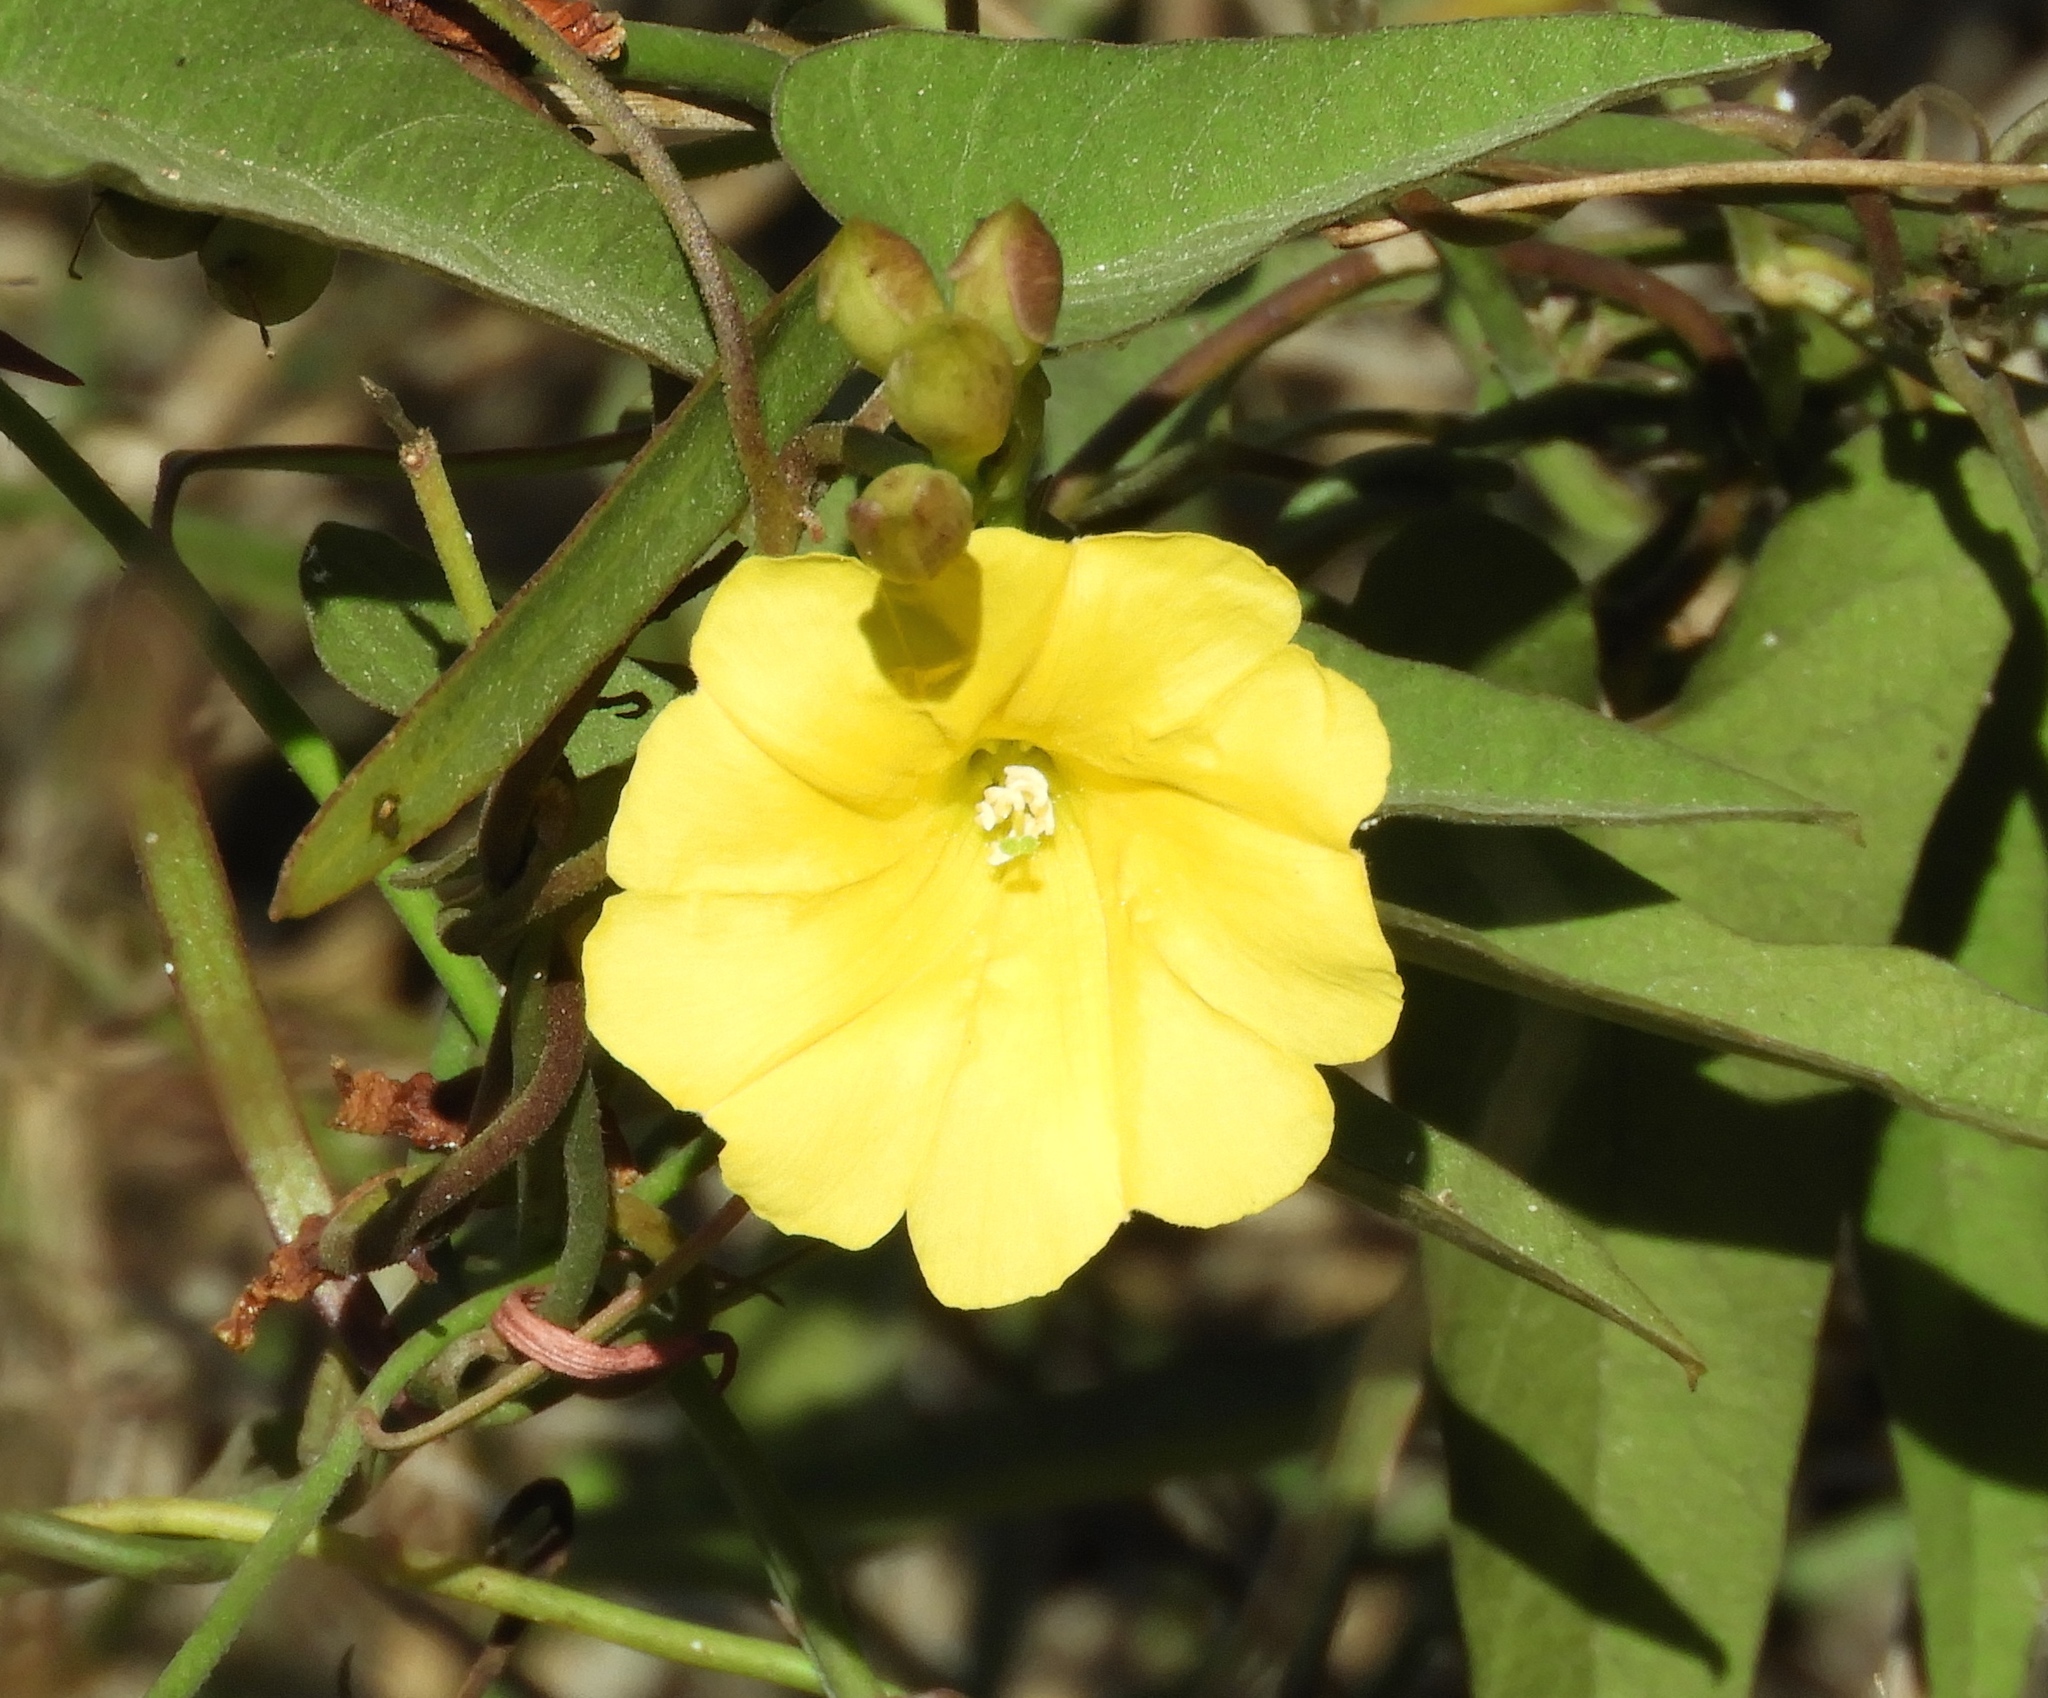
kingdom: Plantae
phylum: Tracheophyta
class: Magnoliopsida
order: Solanales
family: Convolvulaceae
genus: Camonea
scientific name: Camonea umbellata
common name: Hogvine
